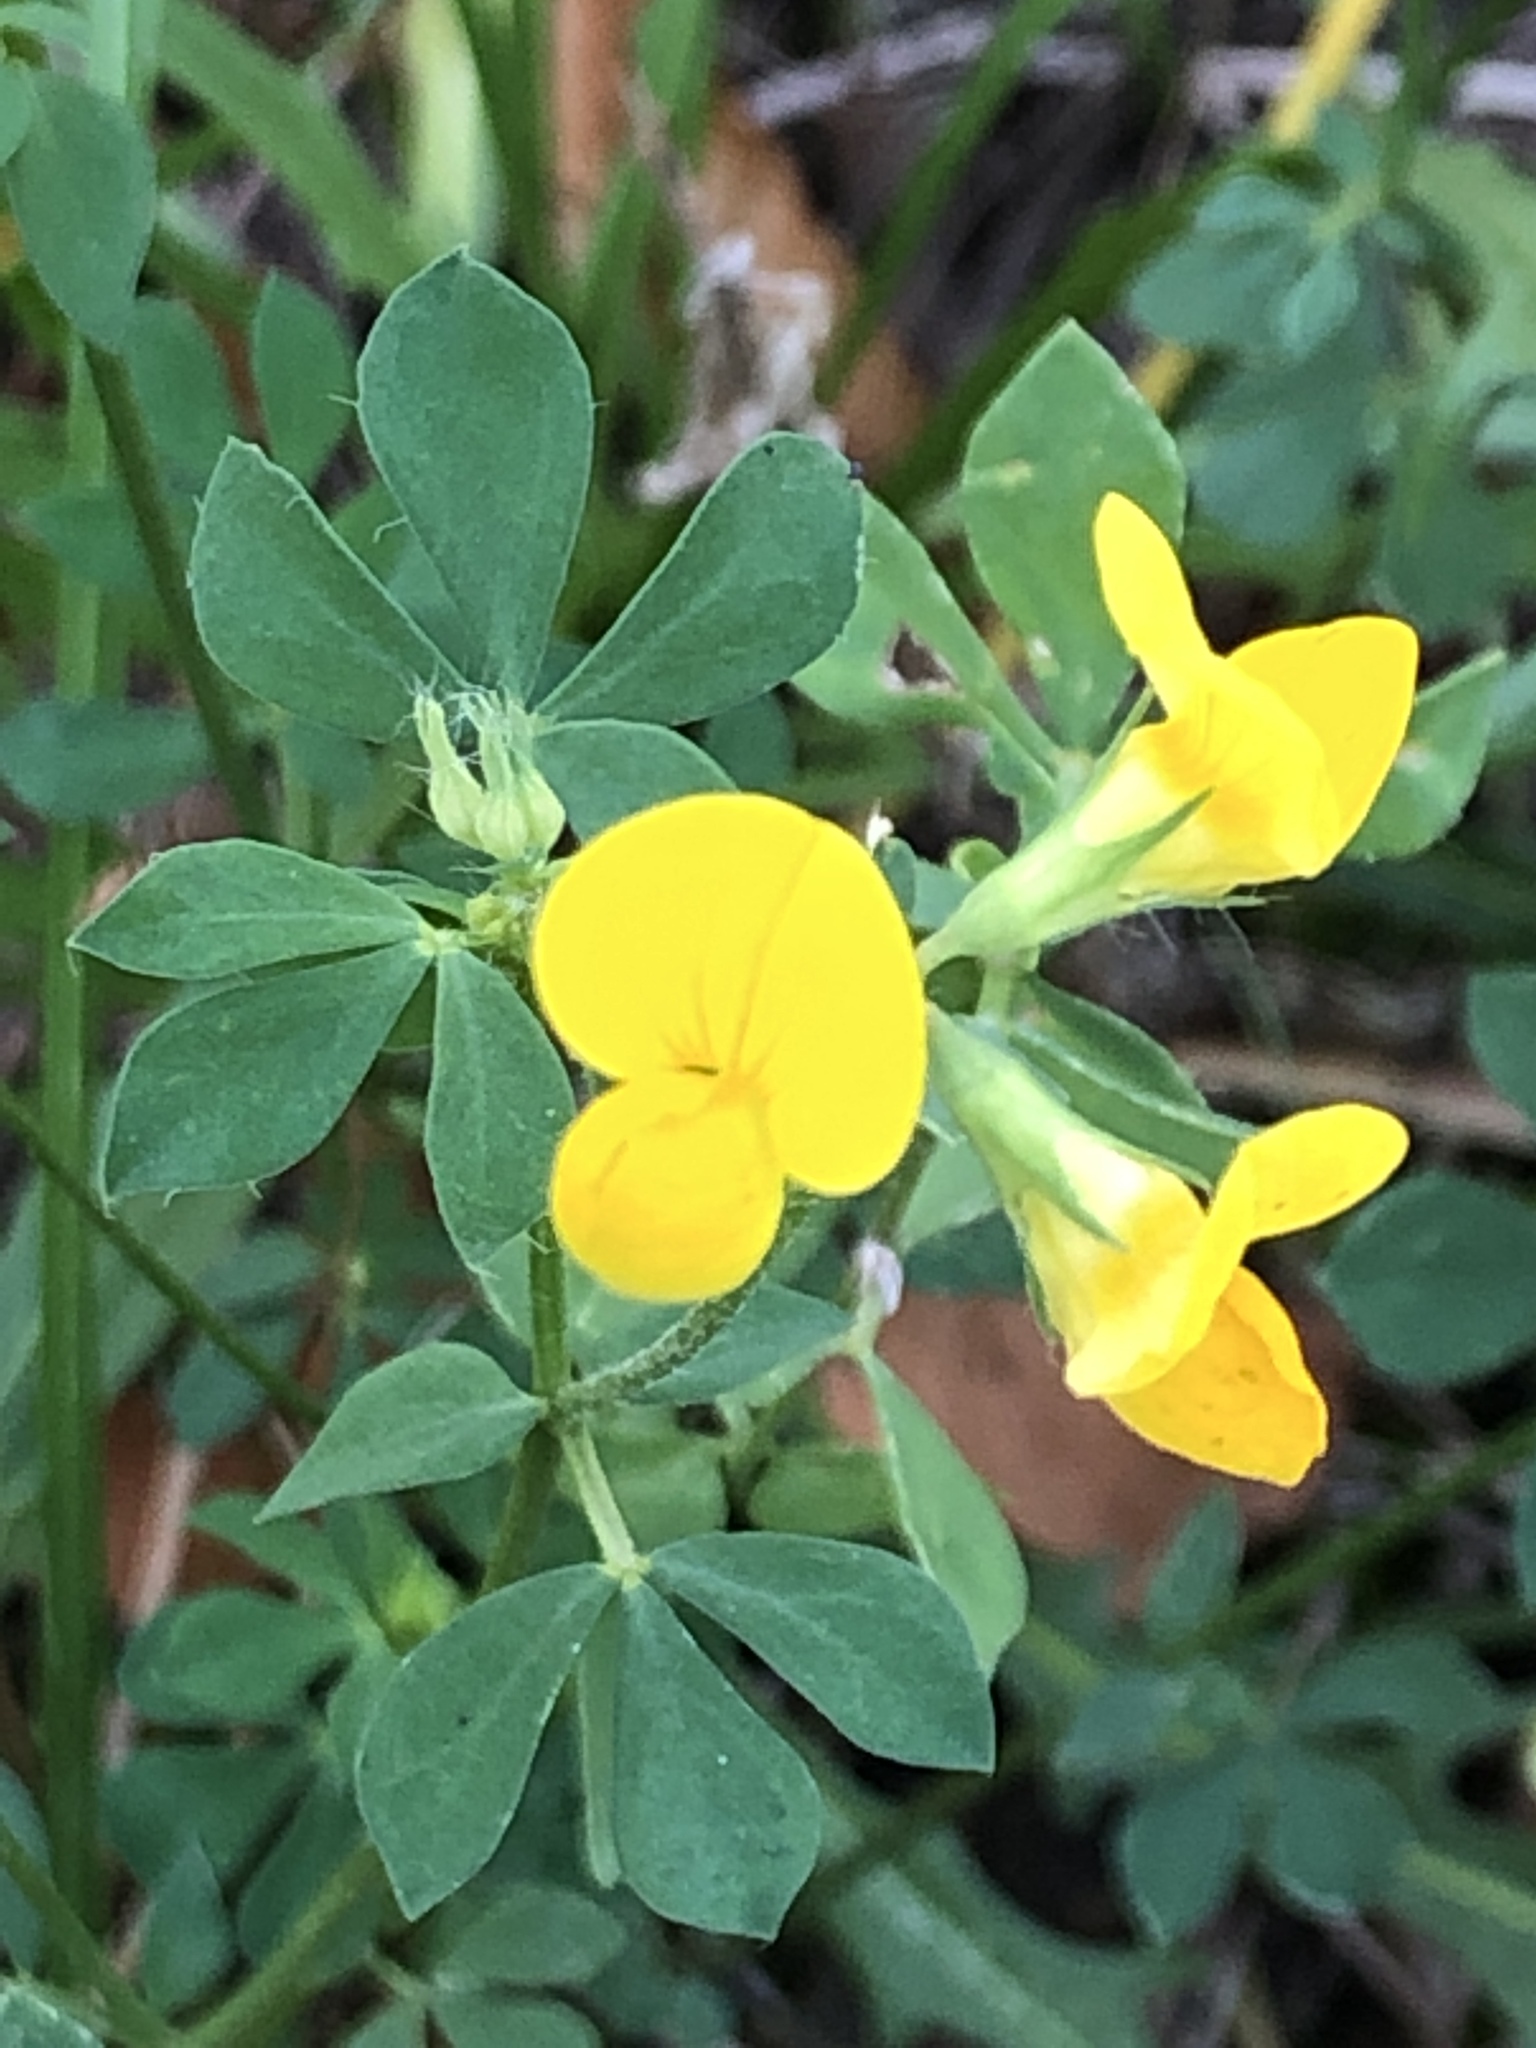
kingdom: Plantae
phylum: Tracheophyta
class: Magnoliopsida
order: Fabales
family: Fabaceae
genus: Lotus
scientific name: Lotus corniculatus
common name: Common bird's-foot-trefoil
